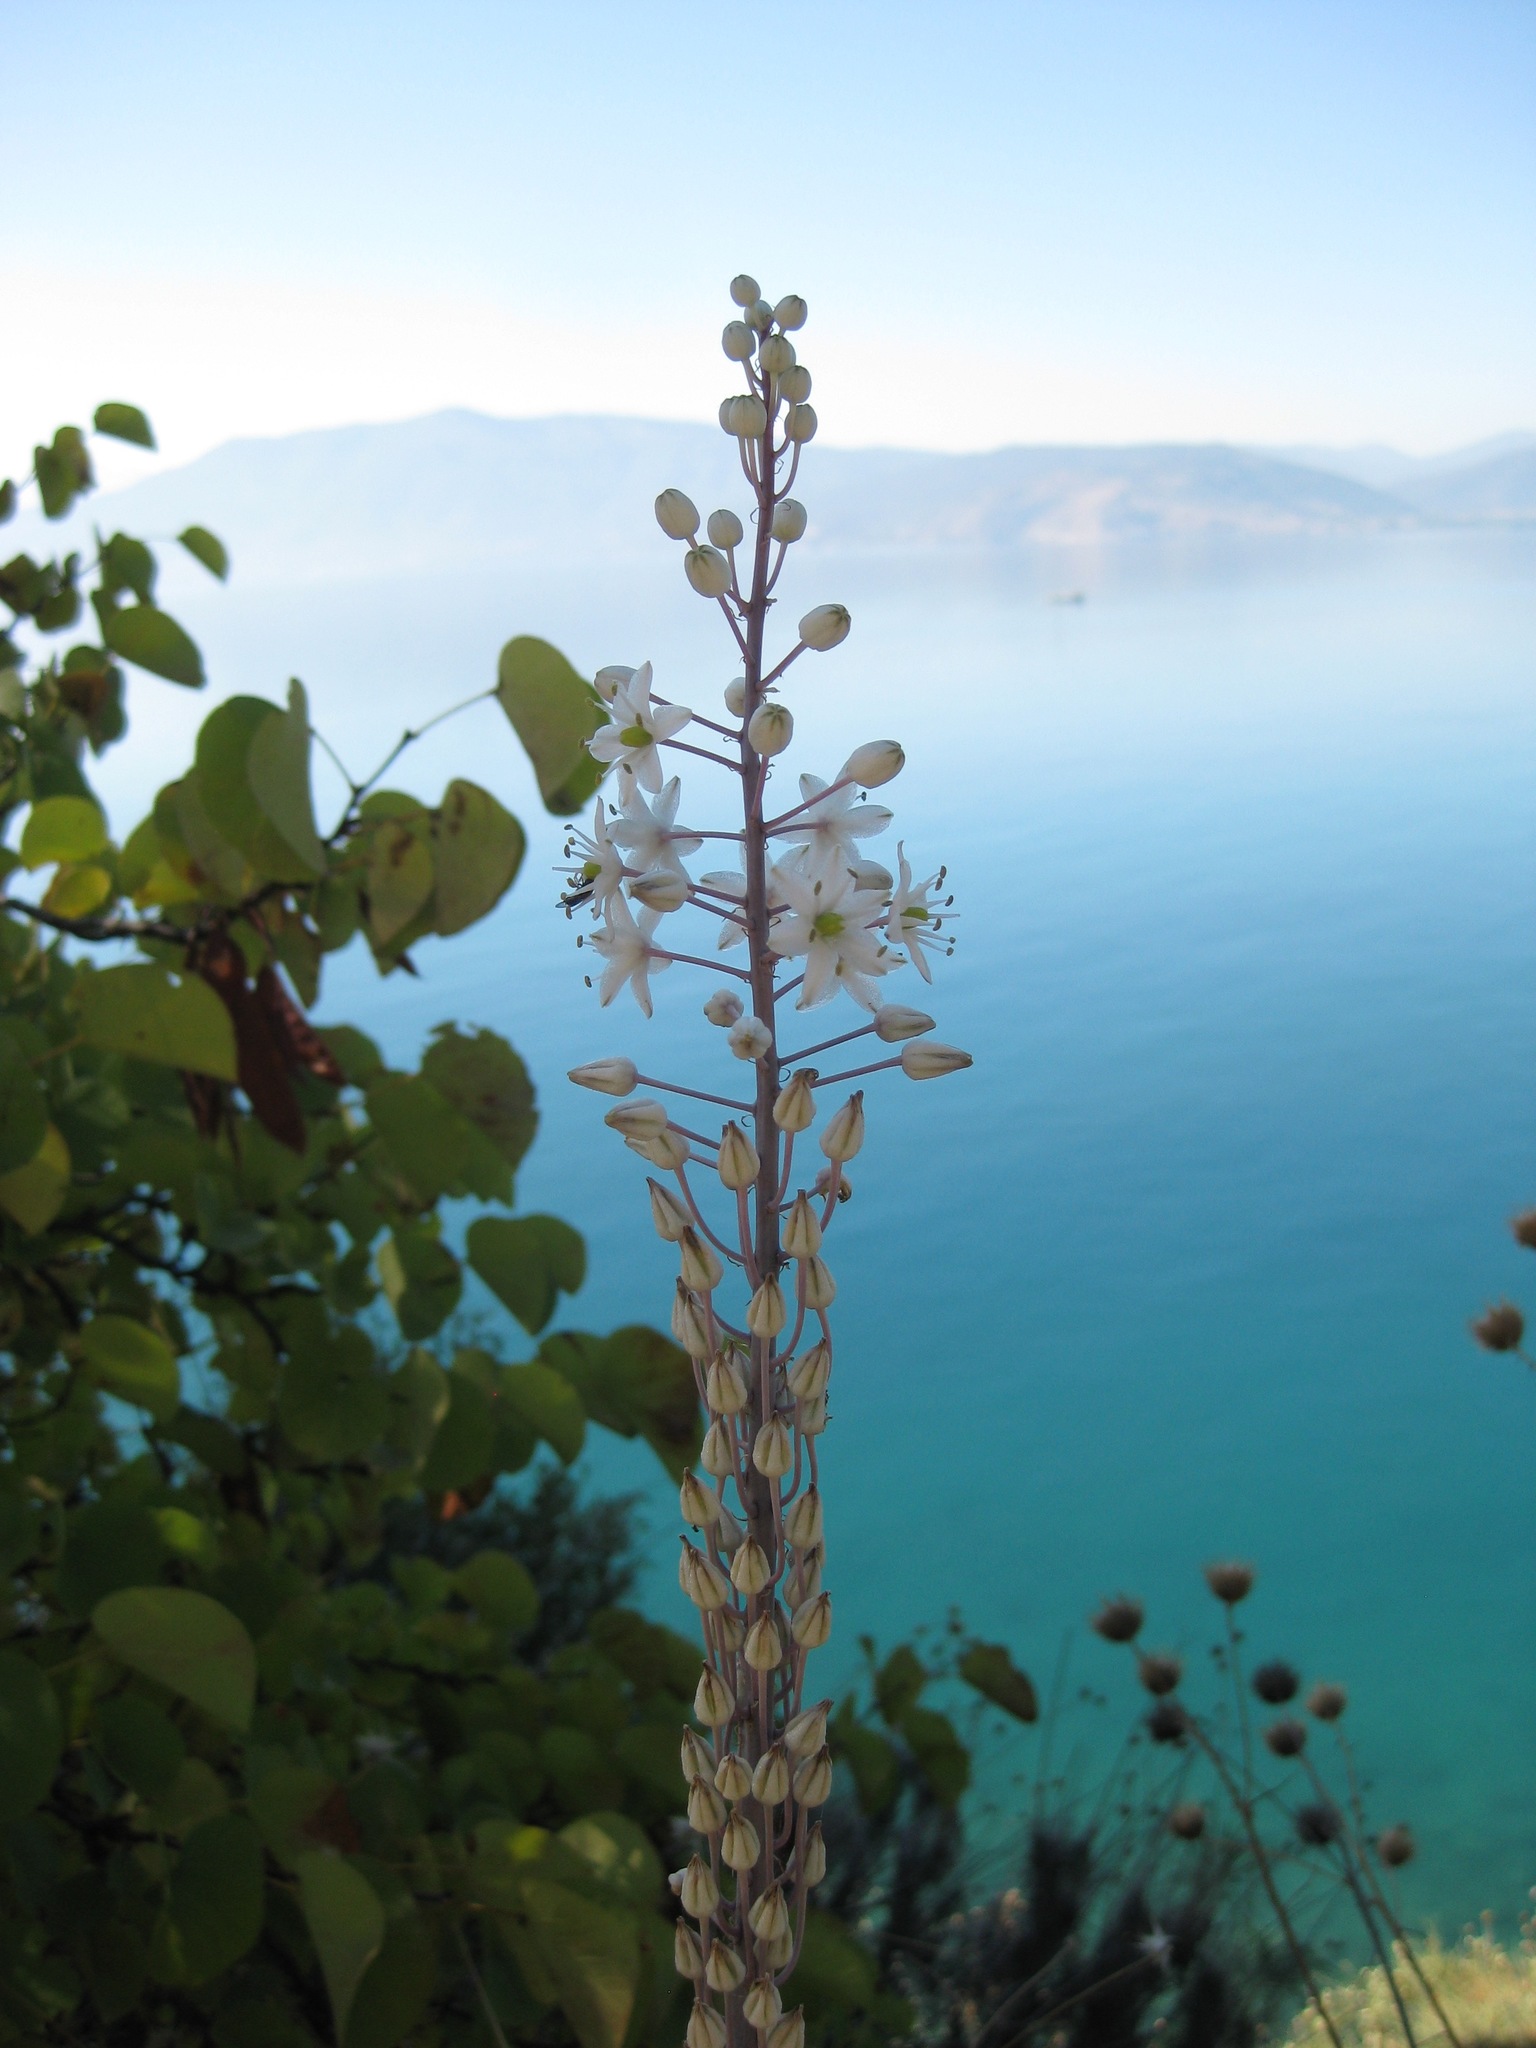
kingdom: Plantae
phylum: Tracheophyta
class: Liliopsida
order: Asparagales
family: Asparagaceae
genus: Drimia
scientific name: Drimia numidica
